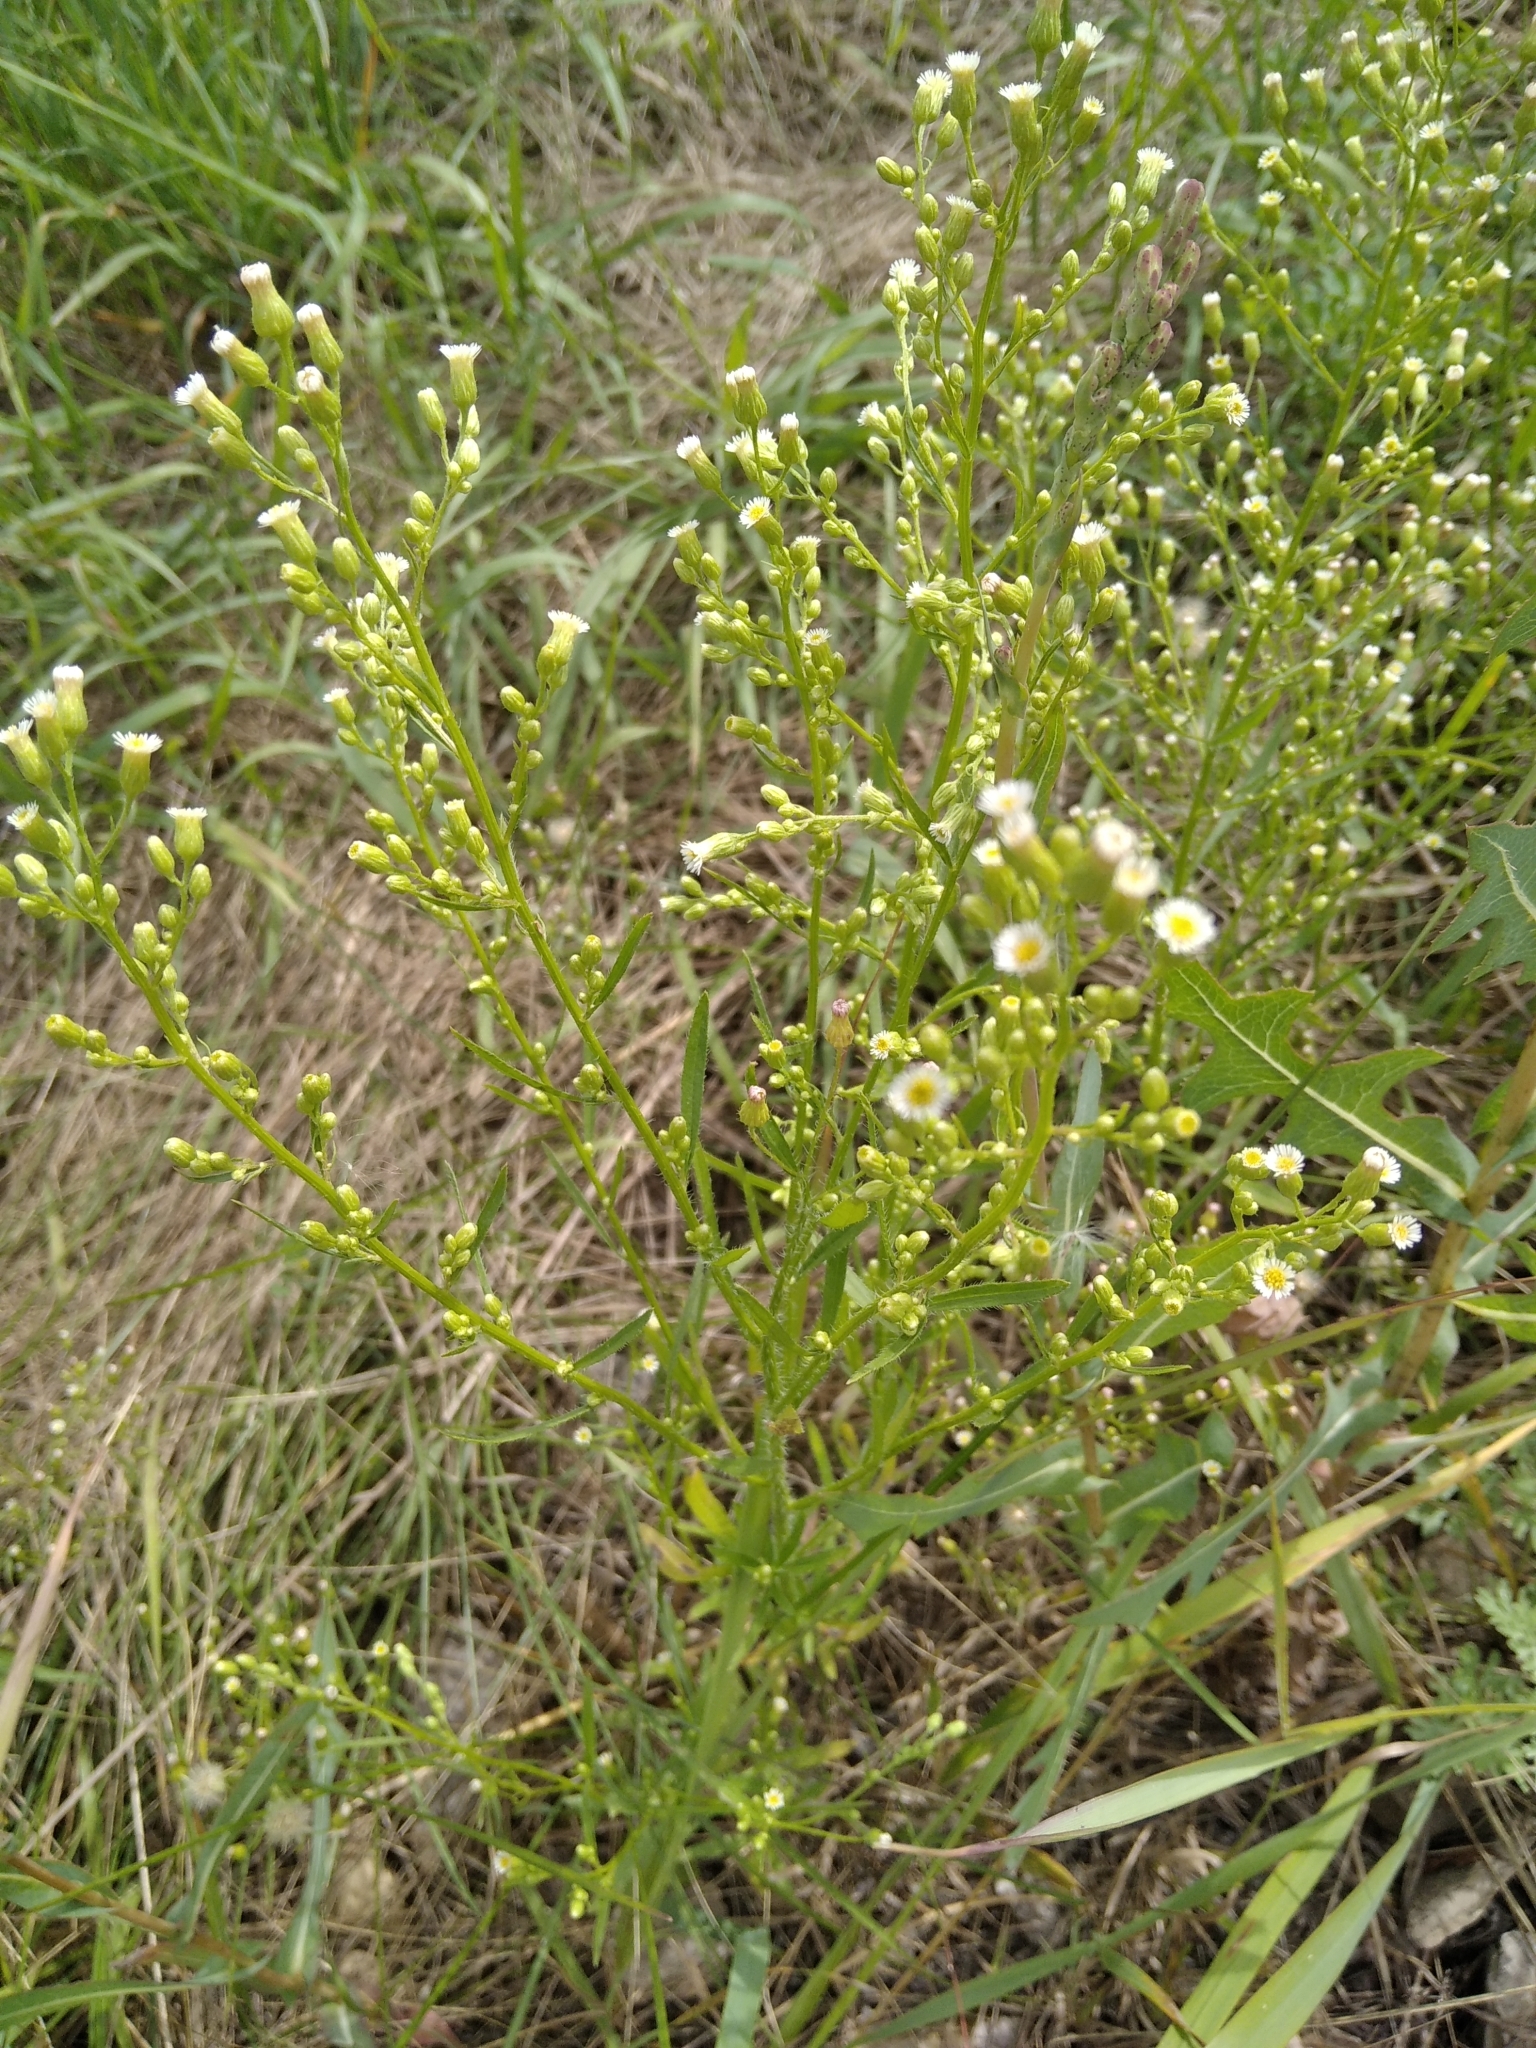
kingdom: Plantae
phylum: Tracheophyta
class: Magnoliopsida
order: Asterales
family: Asteraceae
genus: Erigeron
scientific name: Erigeron canadensis
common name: Canadian fleabane
